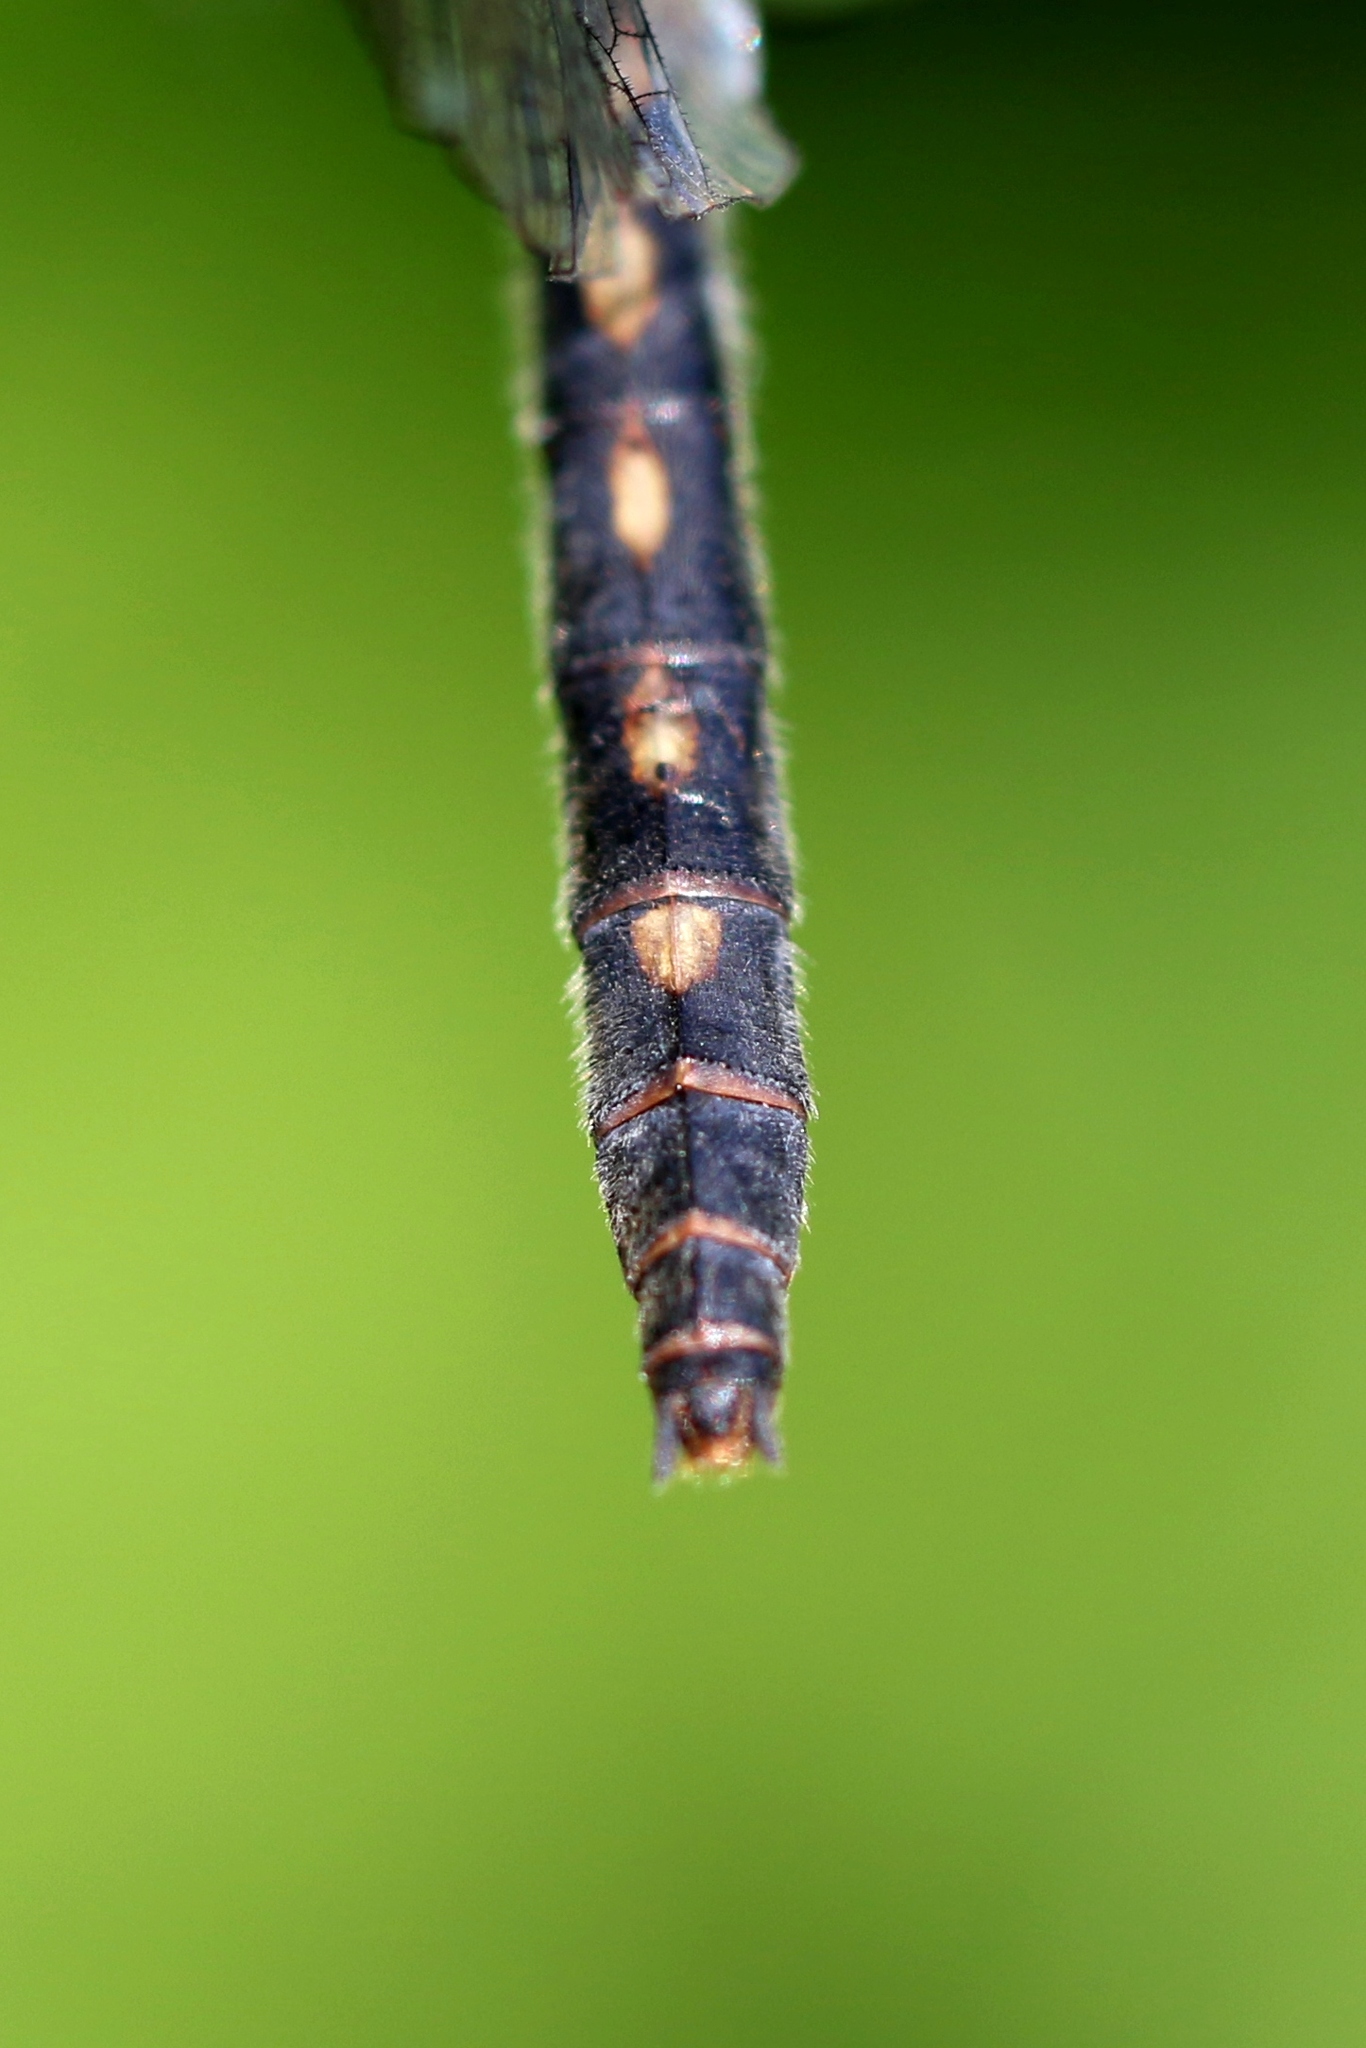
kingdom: Animalia
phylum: Arthropoda
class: Insecta
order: Odonata
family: Libellulidae
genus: Leucorrhinia
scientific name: Leucorrhinia proxima
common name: Belted whiteface
